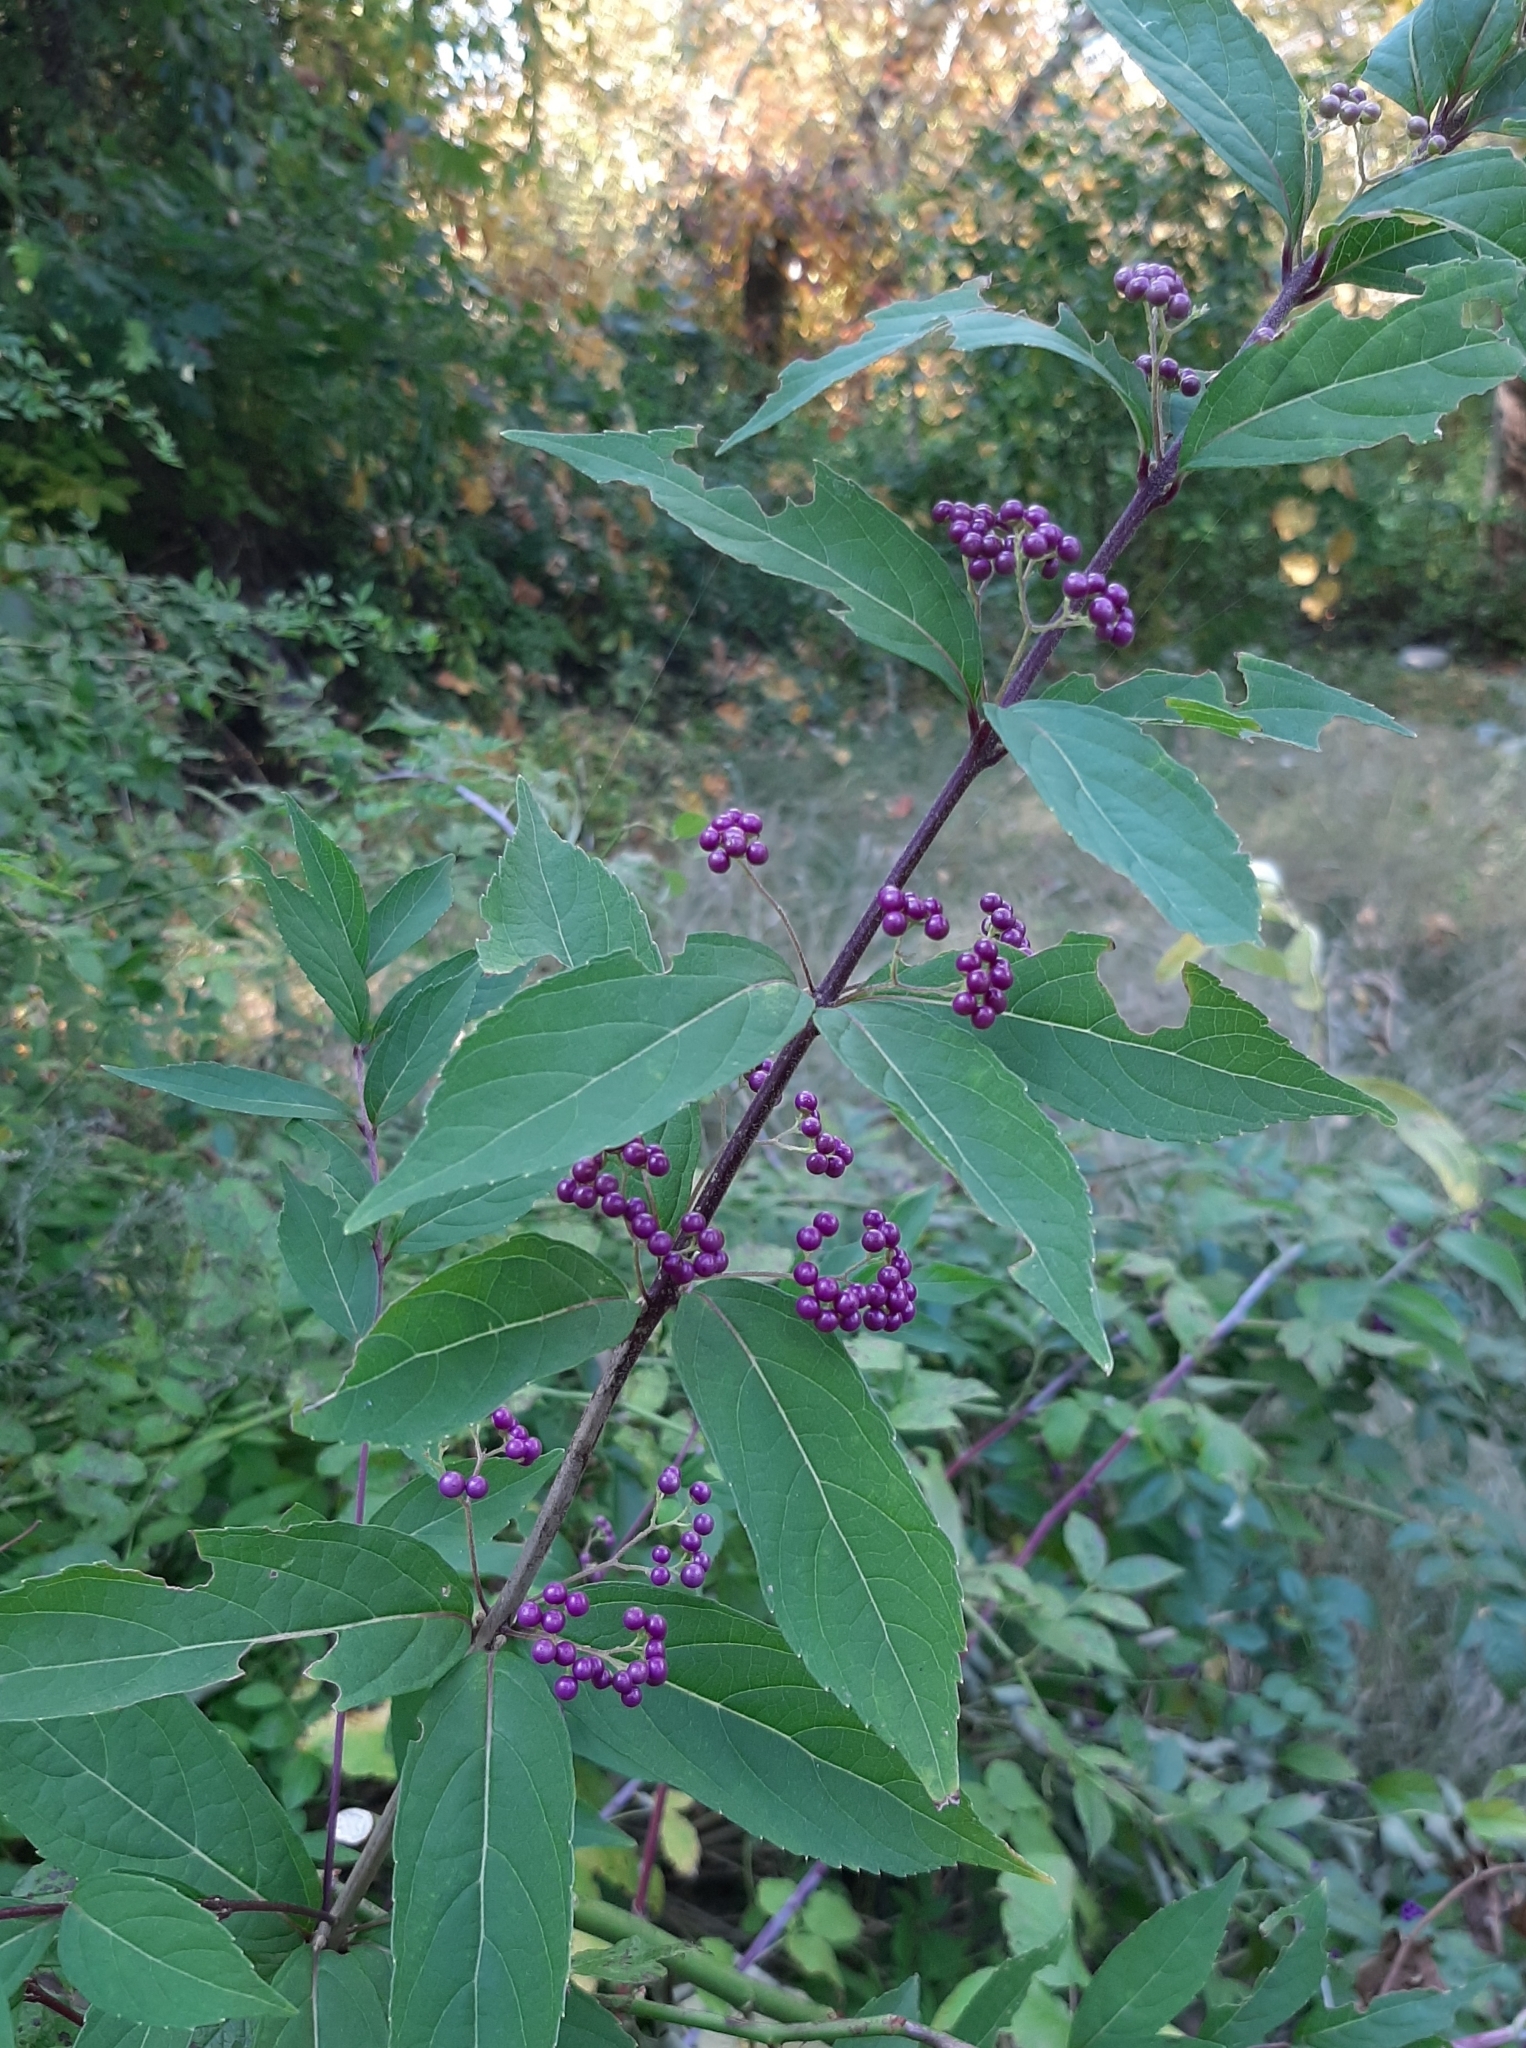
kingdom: Plantae
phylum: Tracheophyta
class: Magnoliopsida
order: Lamiales
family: Lamiaceae
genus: Callicarpa
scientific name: Callicarpa dichotoma
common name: Purple beauty-berry
